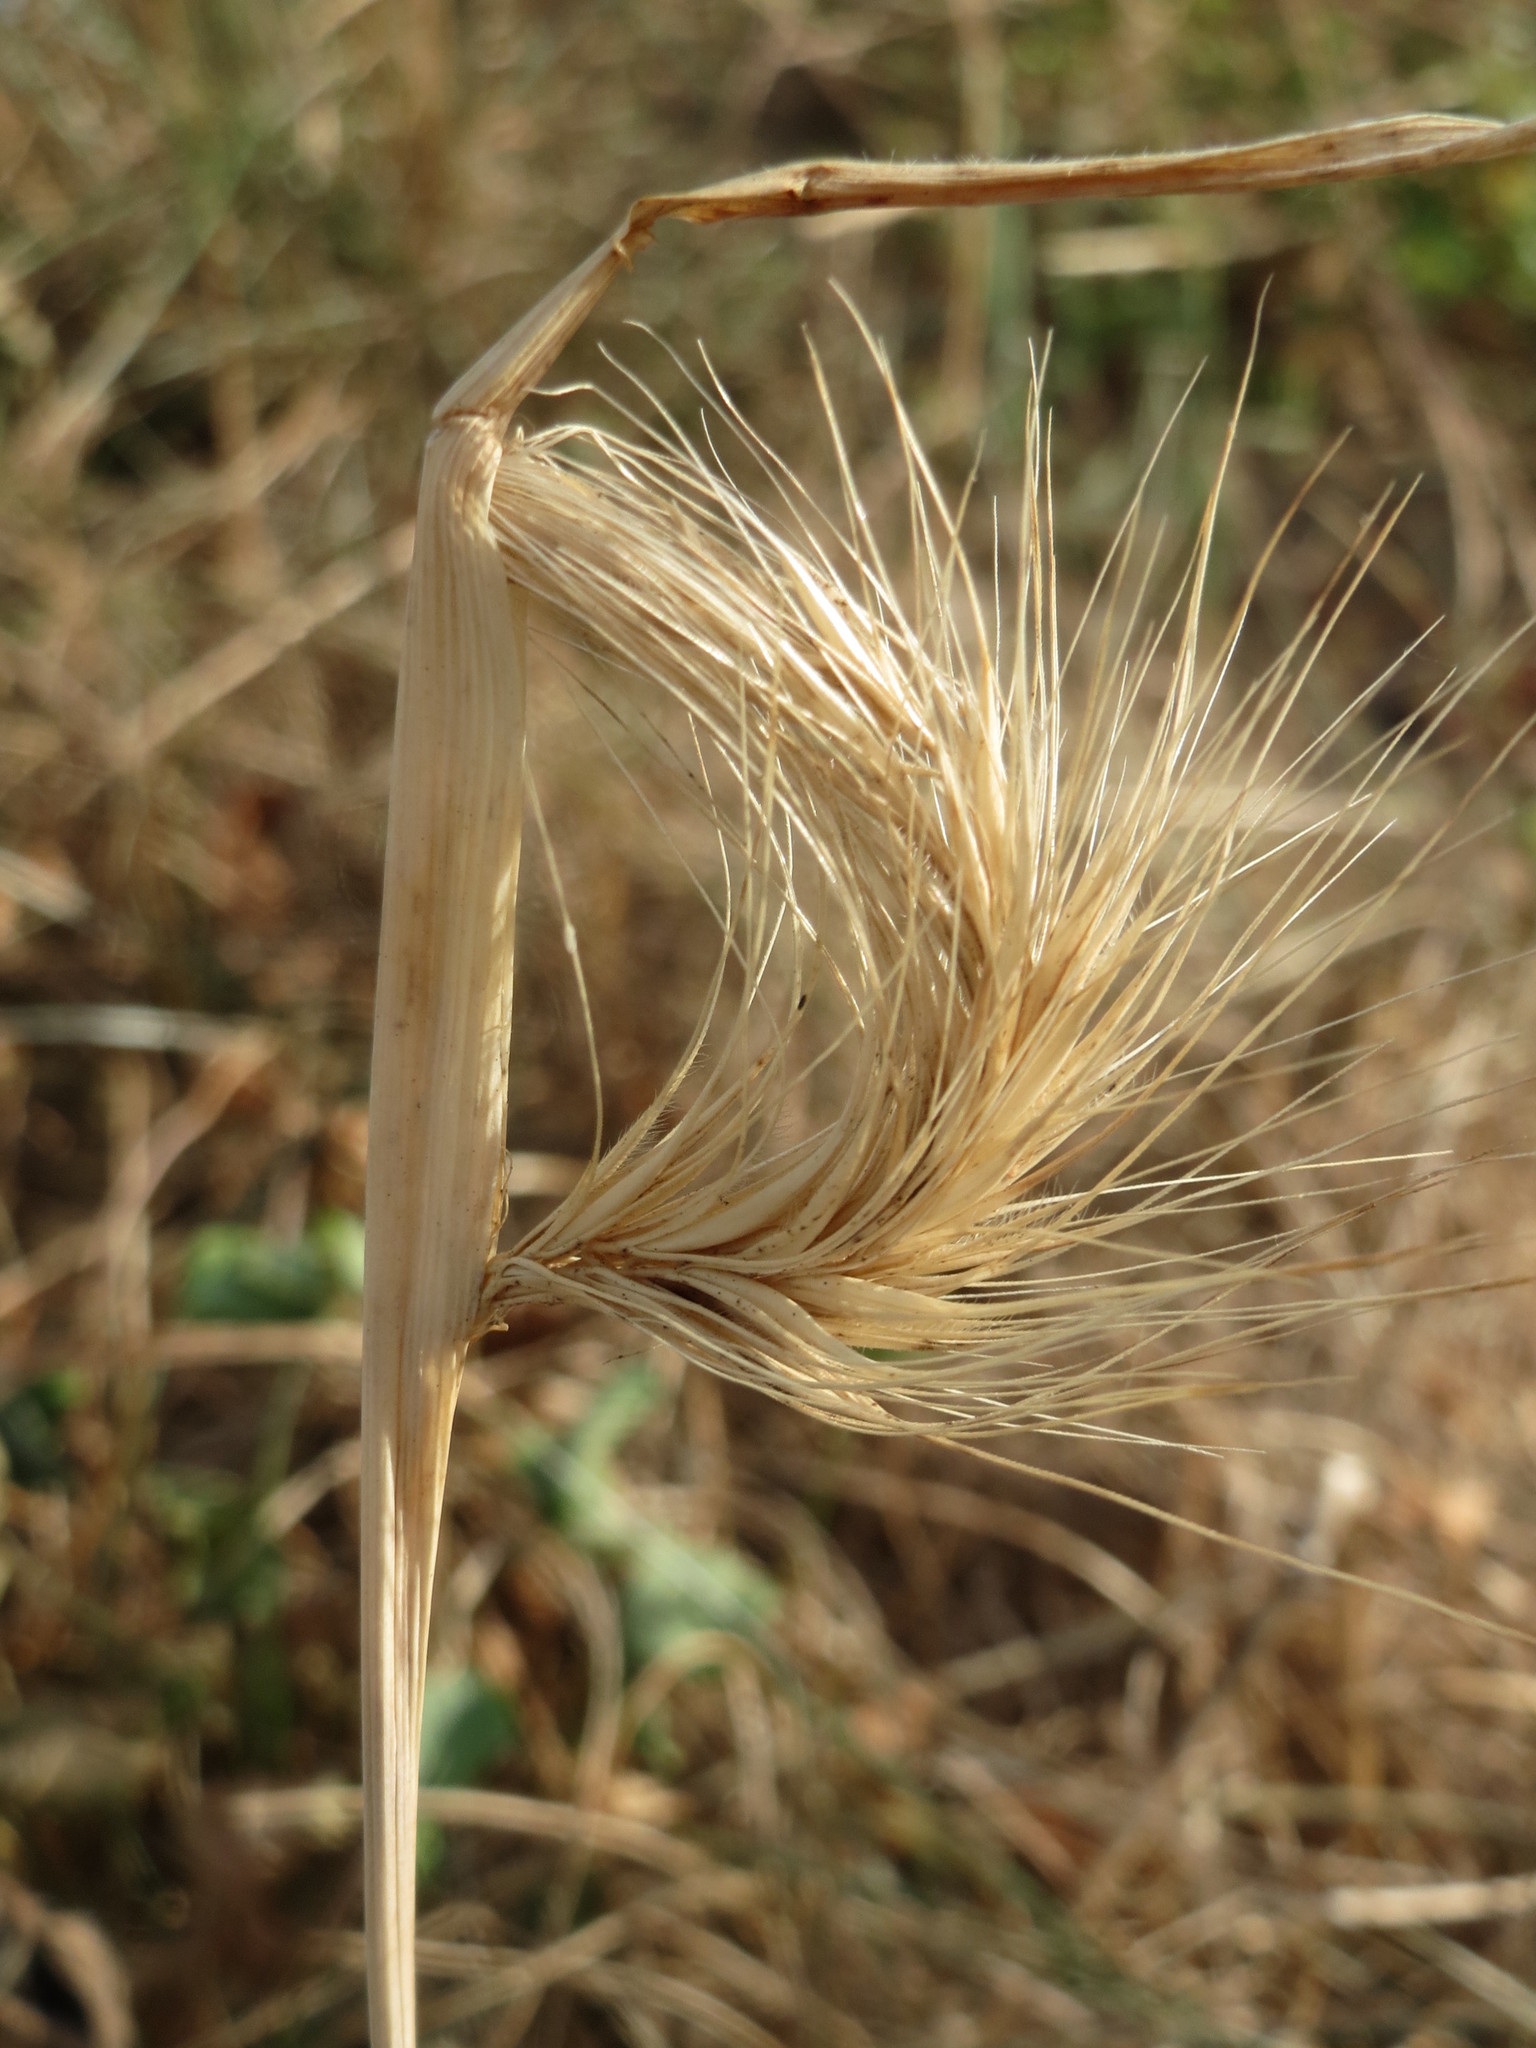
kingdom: Plantae
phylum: Tracheophyta
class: Liliopsida
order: Poales
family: Poaceae
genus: Hordeum
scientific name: Hordeum murinum
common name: Wall barley
